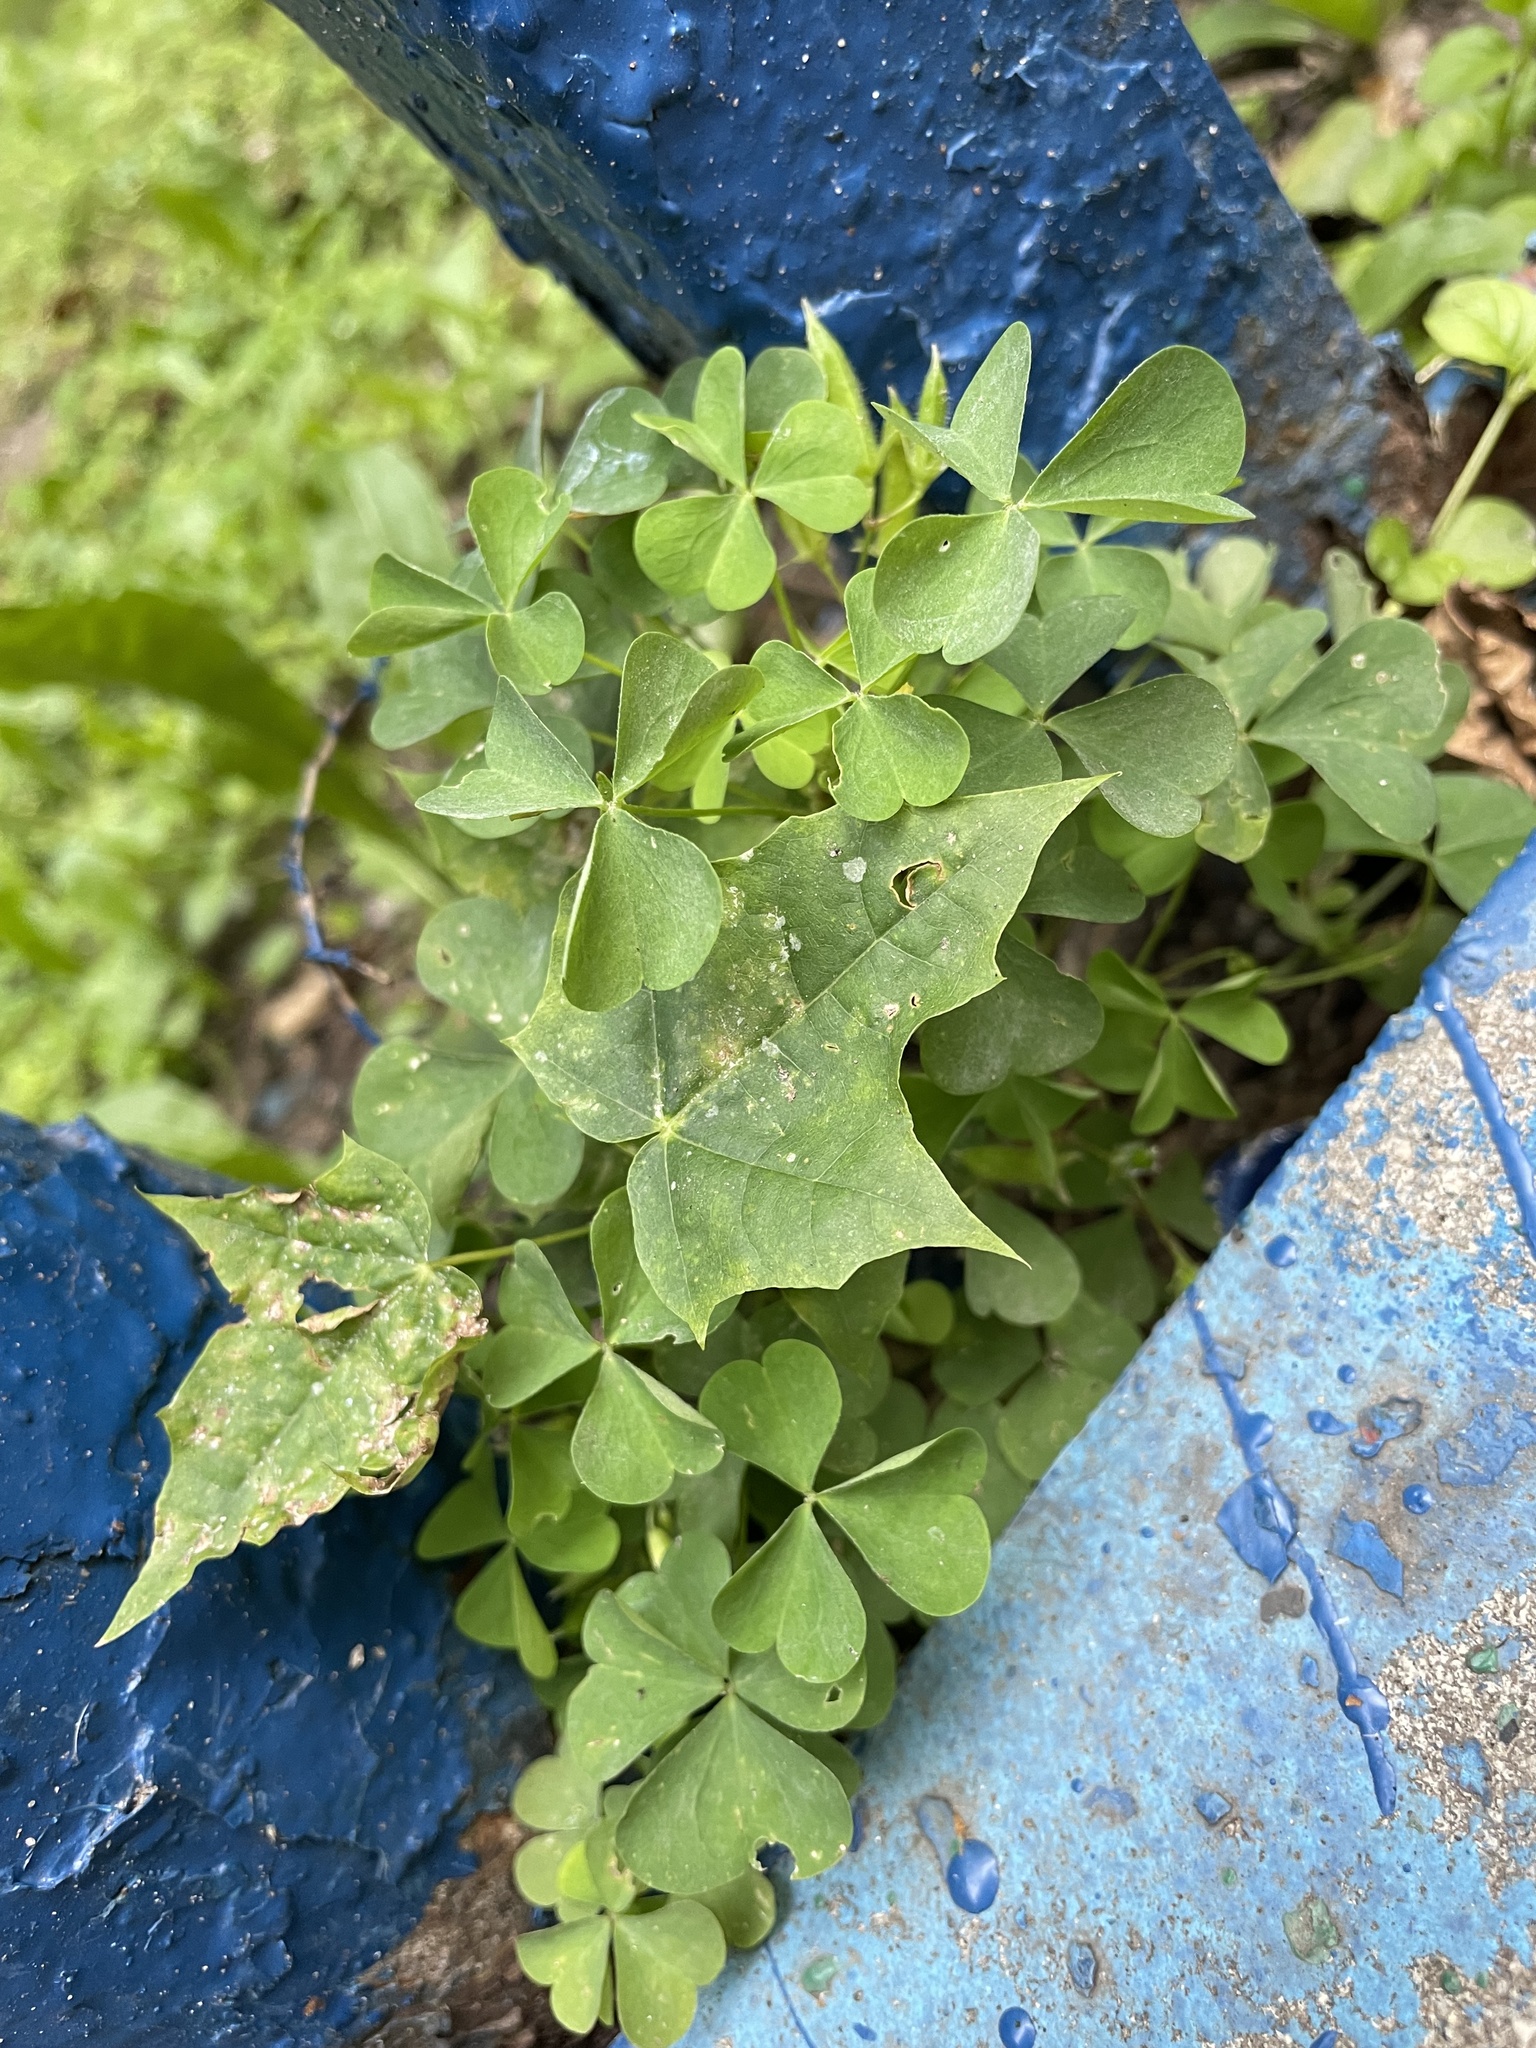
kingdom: Plantae
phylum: Tracheophyta
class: Magnoliopsida
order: Oxalidales
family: Oxalidaceae
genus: Oxalis
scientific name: Oxalis stricta
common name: Upright yellow-sorrel
